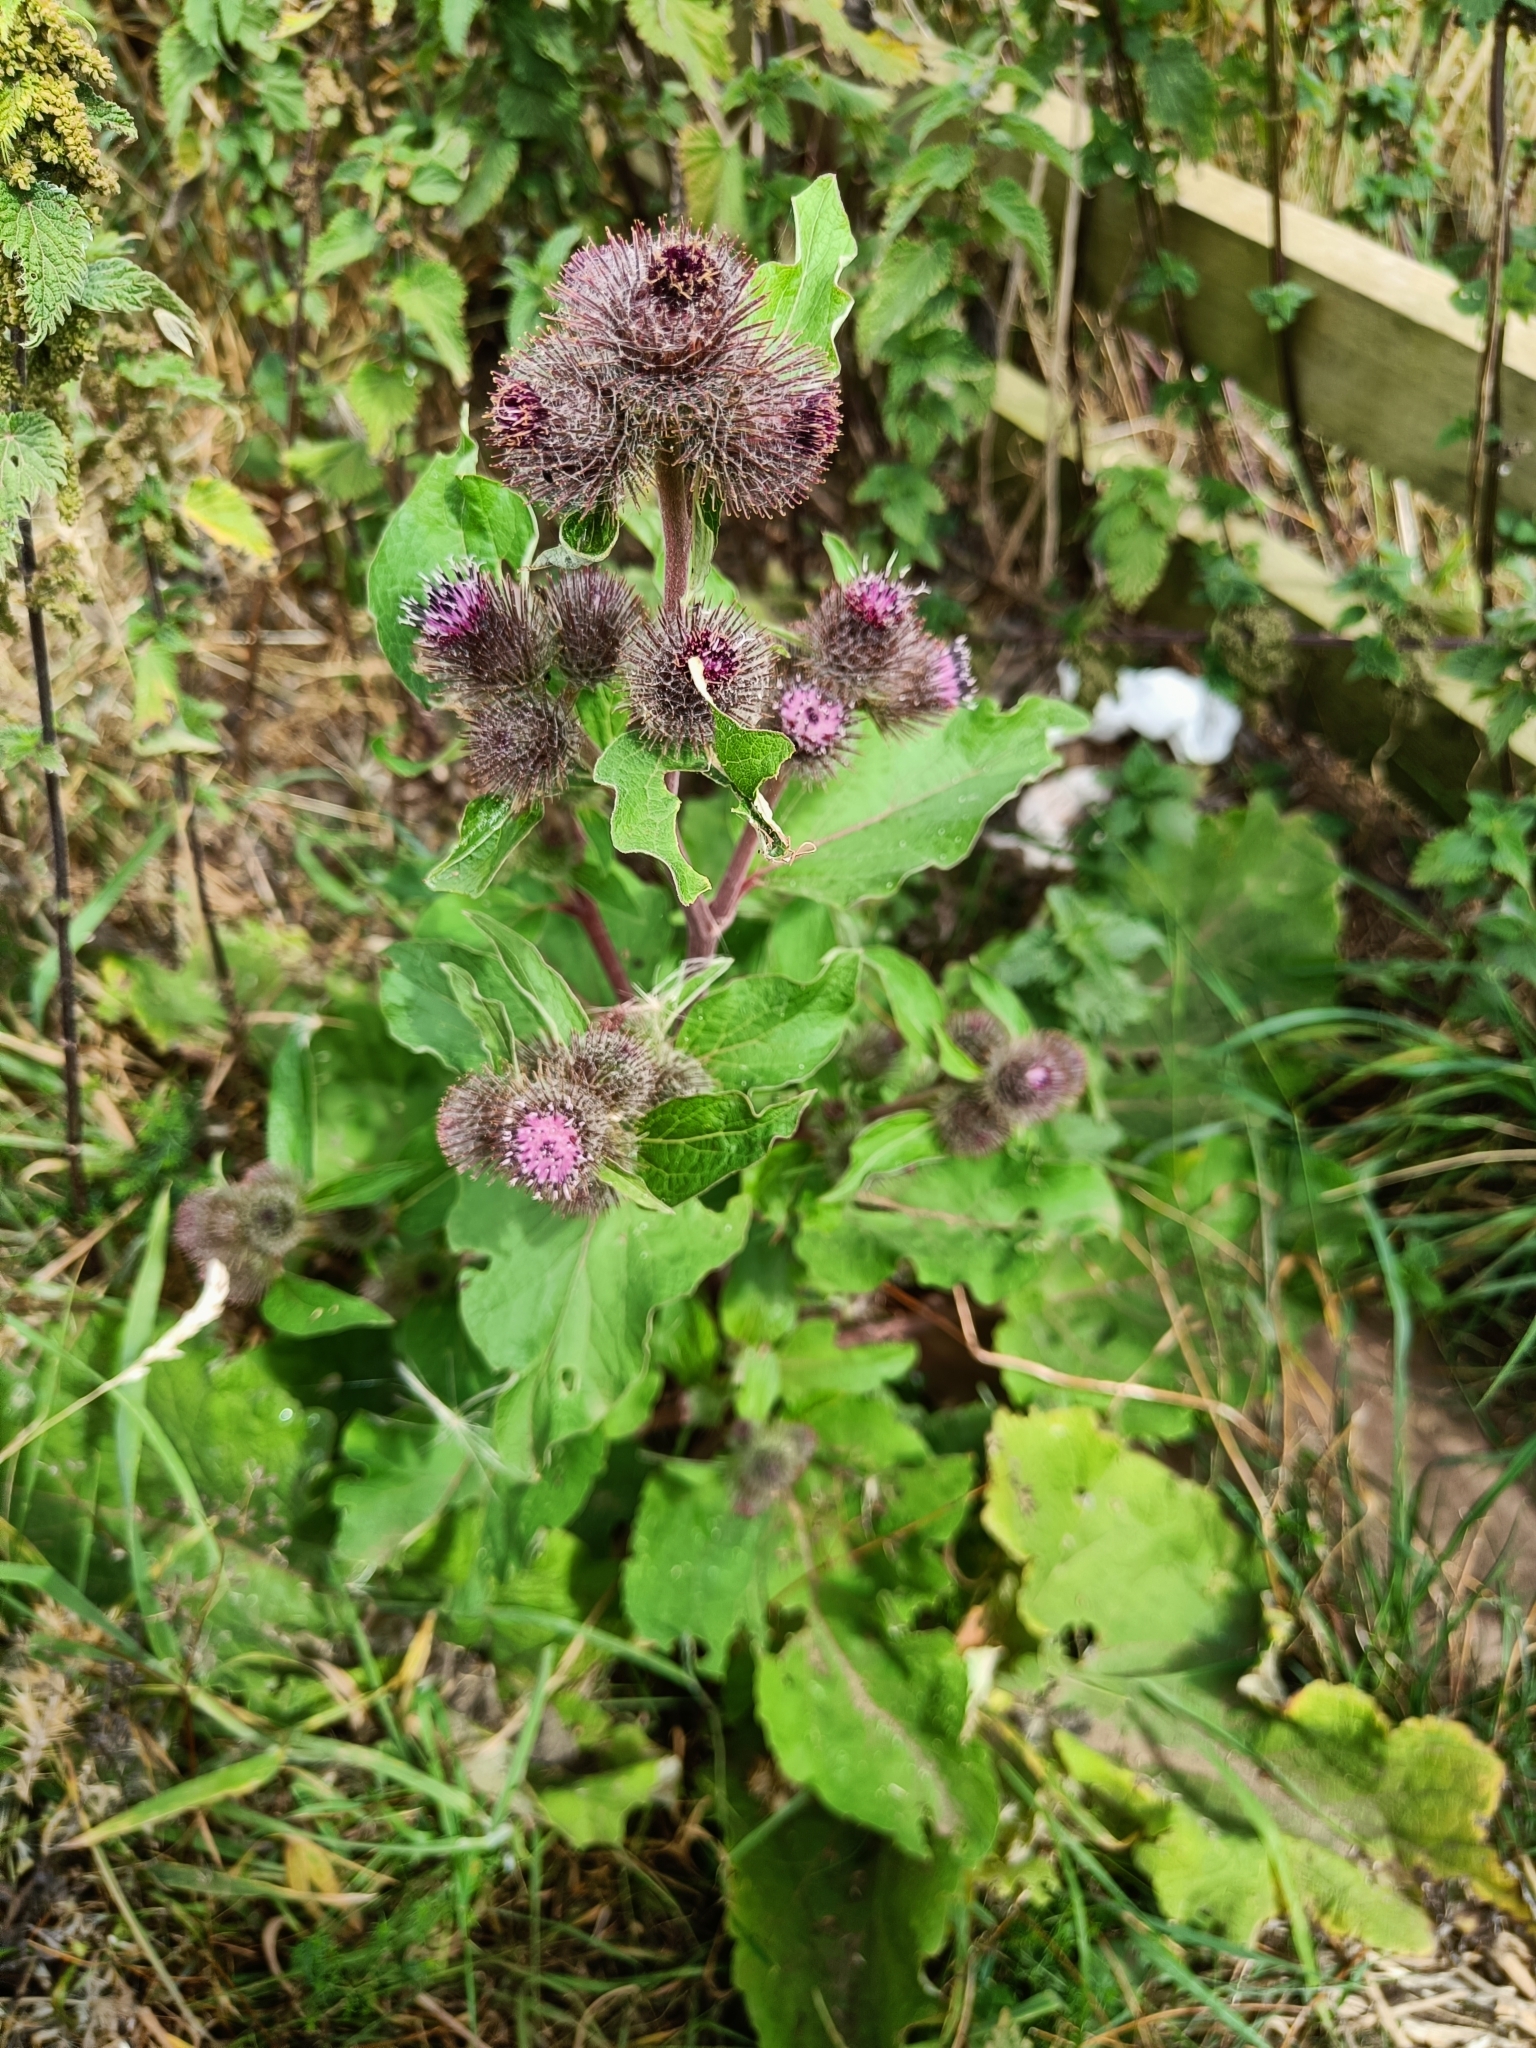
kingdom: Plantae
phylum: Tracheophyta
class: Magnoliopsida
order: Asterales
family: Asteraceae
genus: Arctium
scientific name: Arctium minus
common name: Lesser burdock
